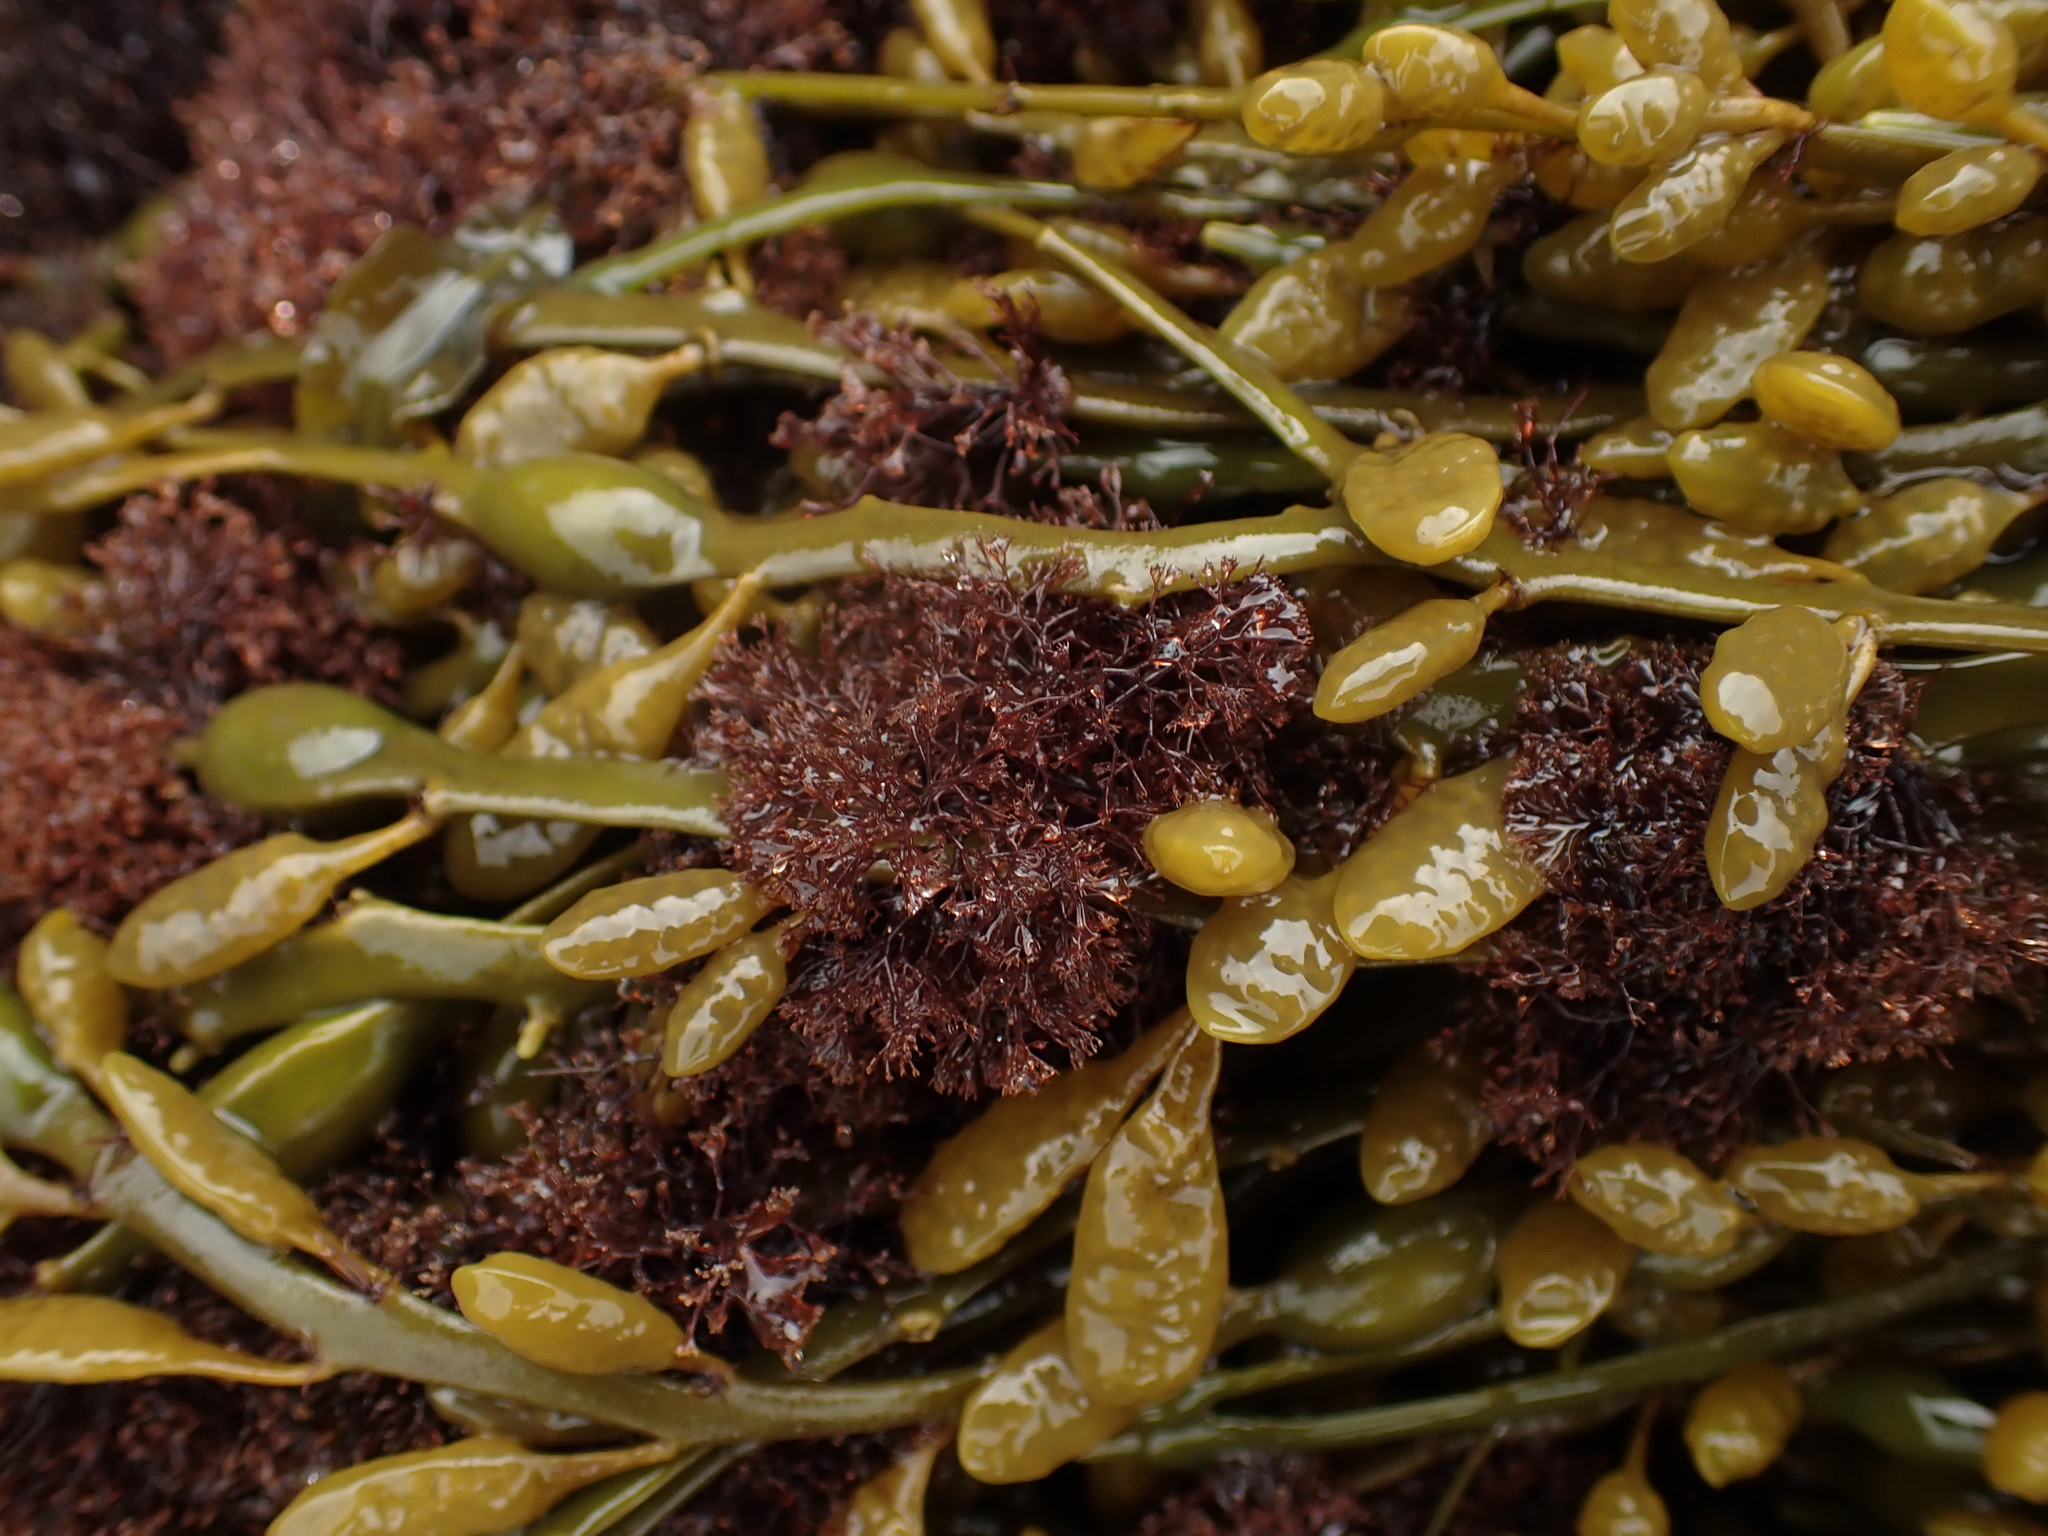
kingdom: Plantae
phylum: Rhodophyta
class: Florideophyceae
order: Ceramiales
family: Rhodomelaceae
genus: Vertebrata
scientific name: Vertebrata lanosa
